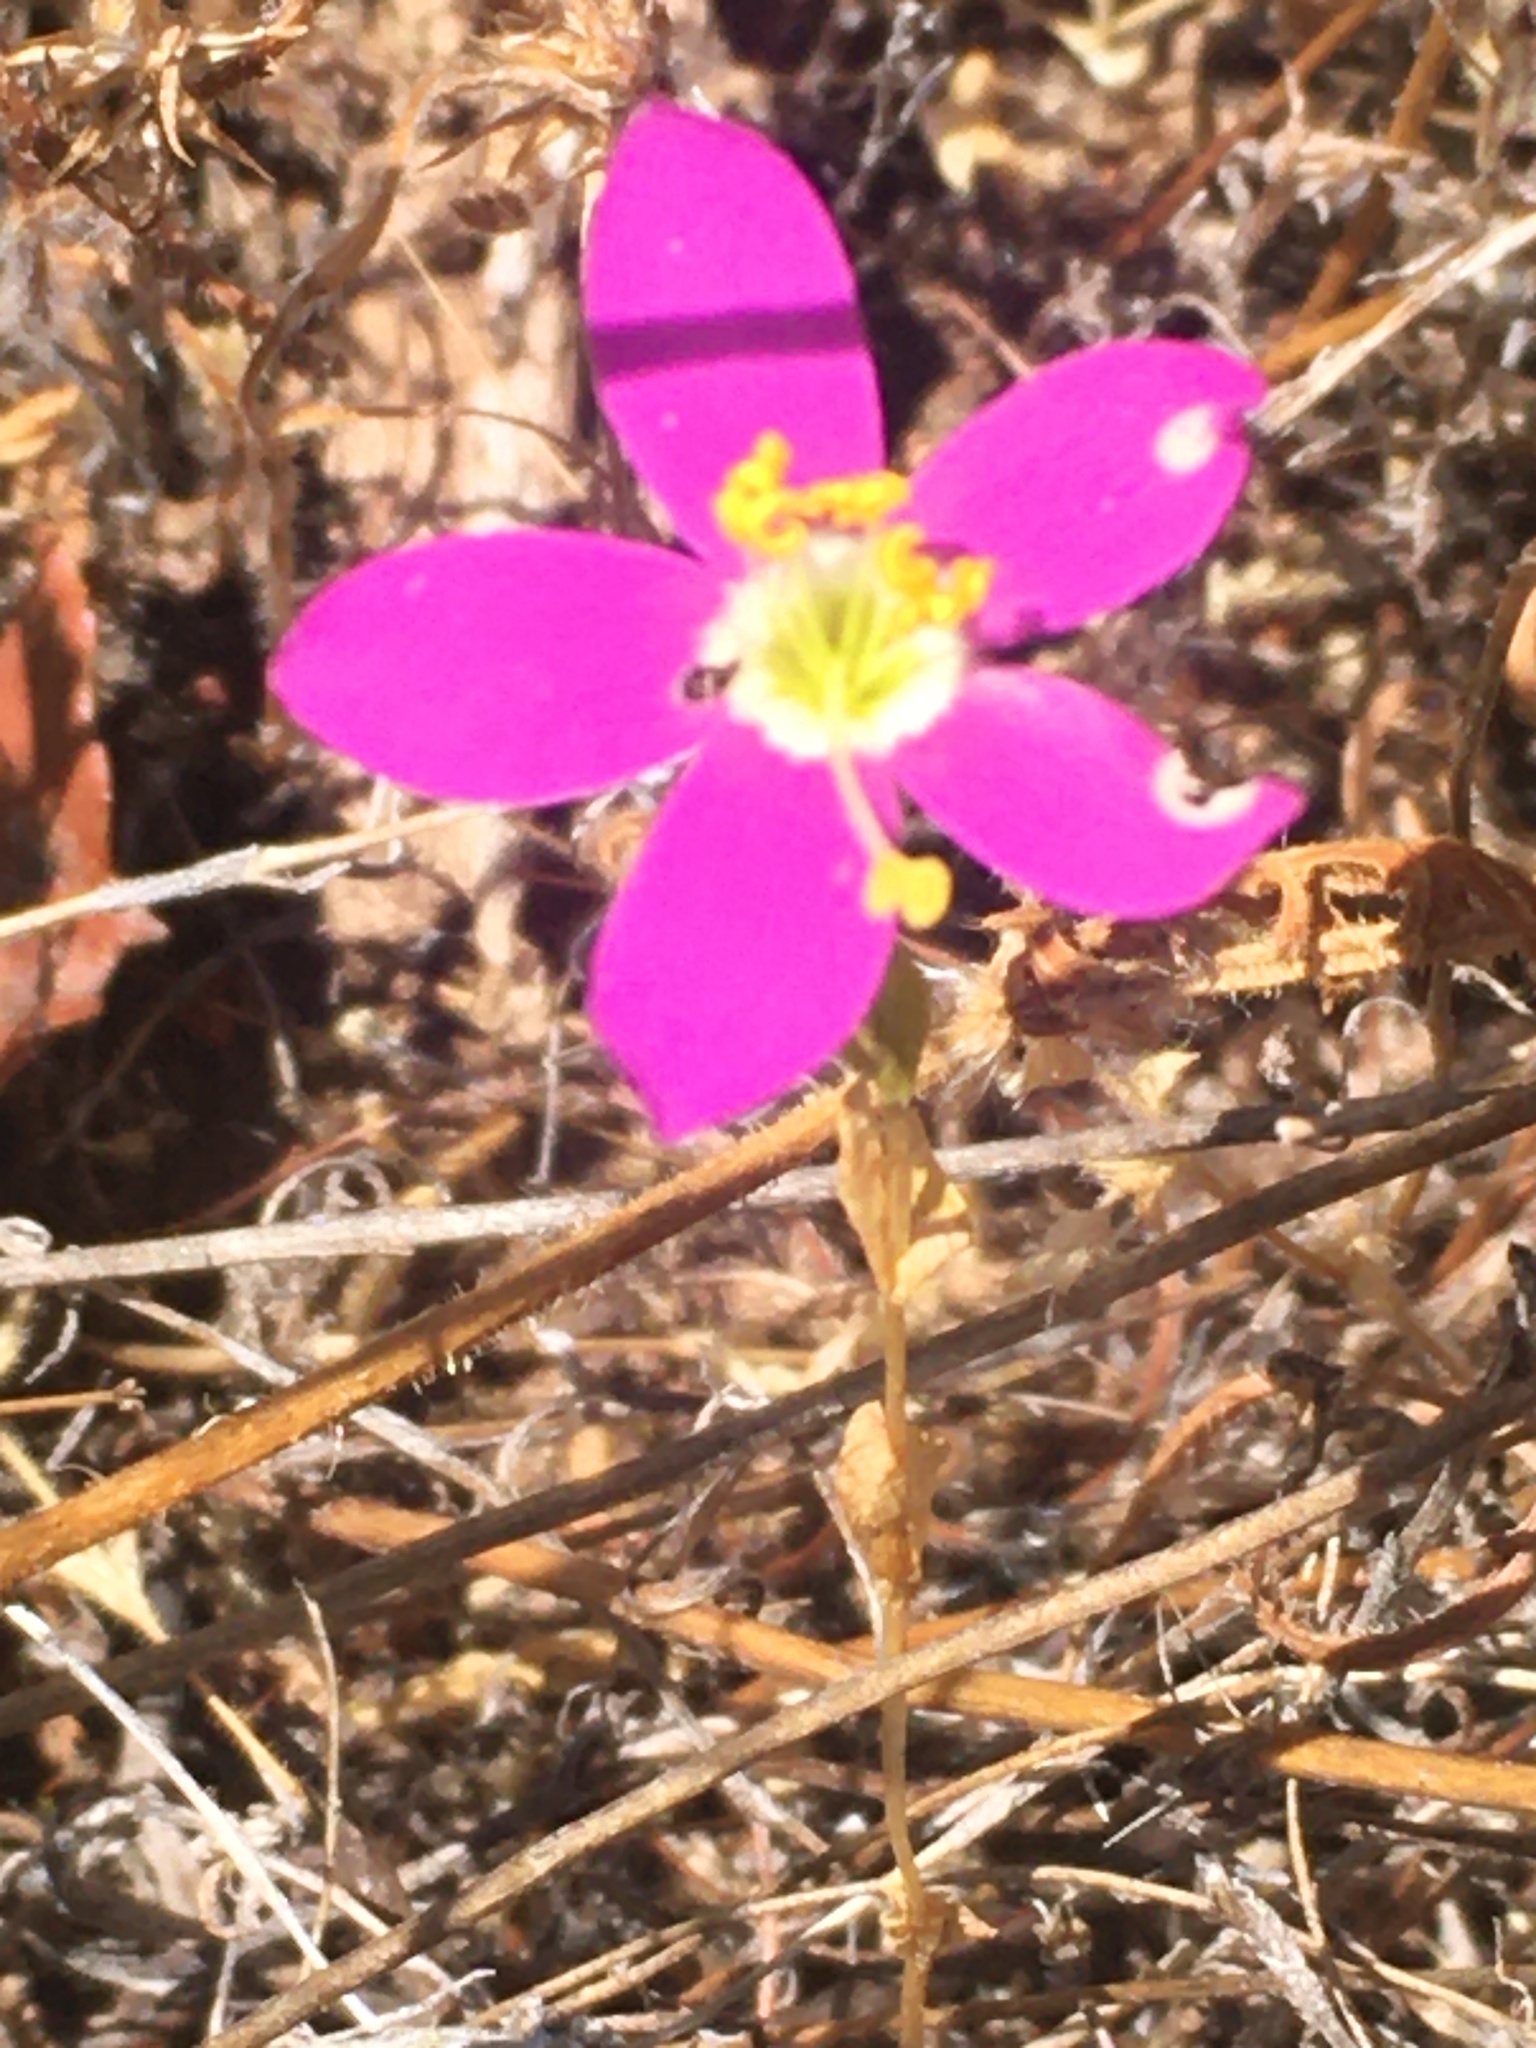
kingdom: Plantae
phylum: Tracheophyta
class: Magnoliopsida
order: Gentianales
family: Gentianaceae
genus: Zeltnera
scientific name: Zeltnera venusta
